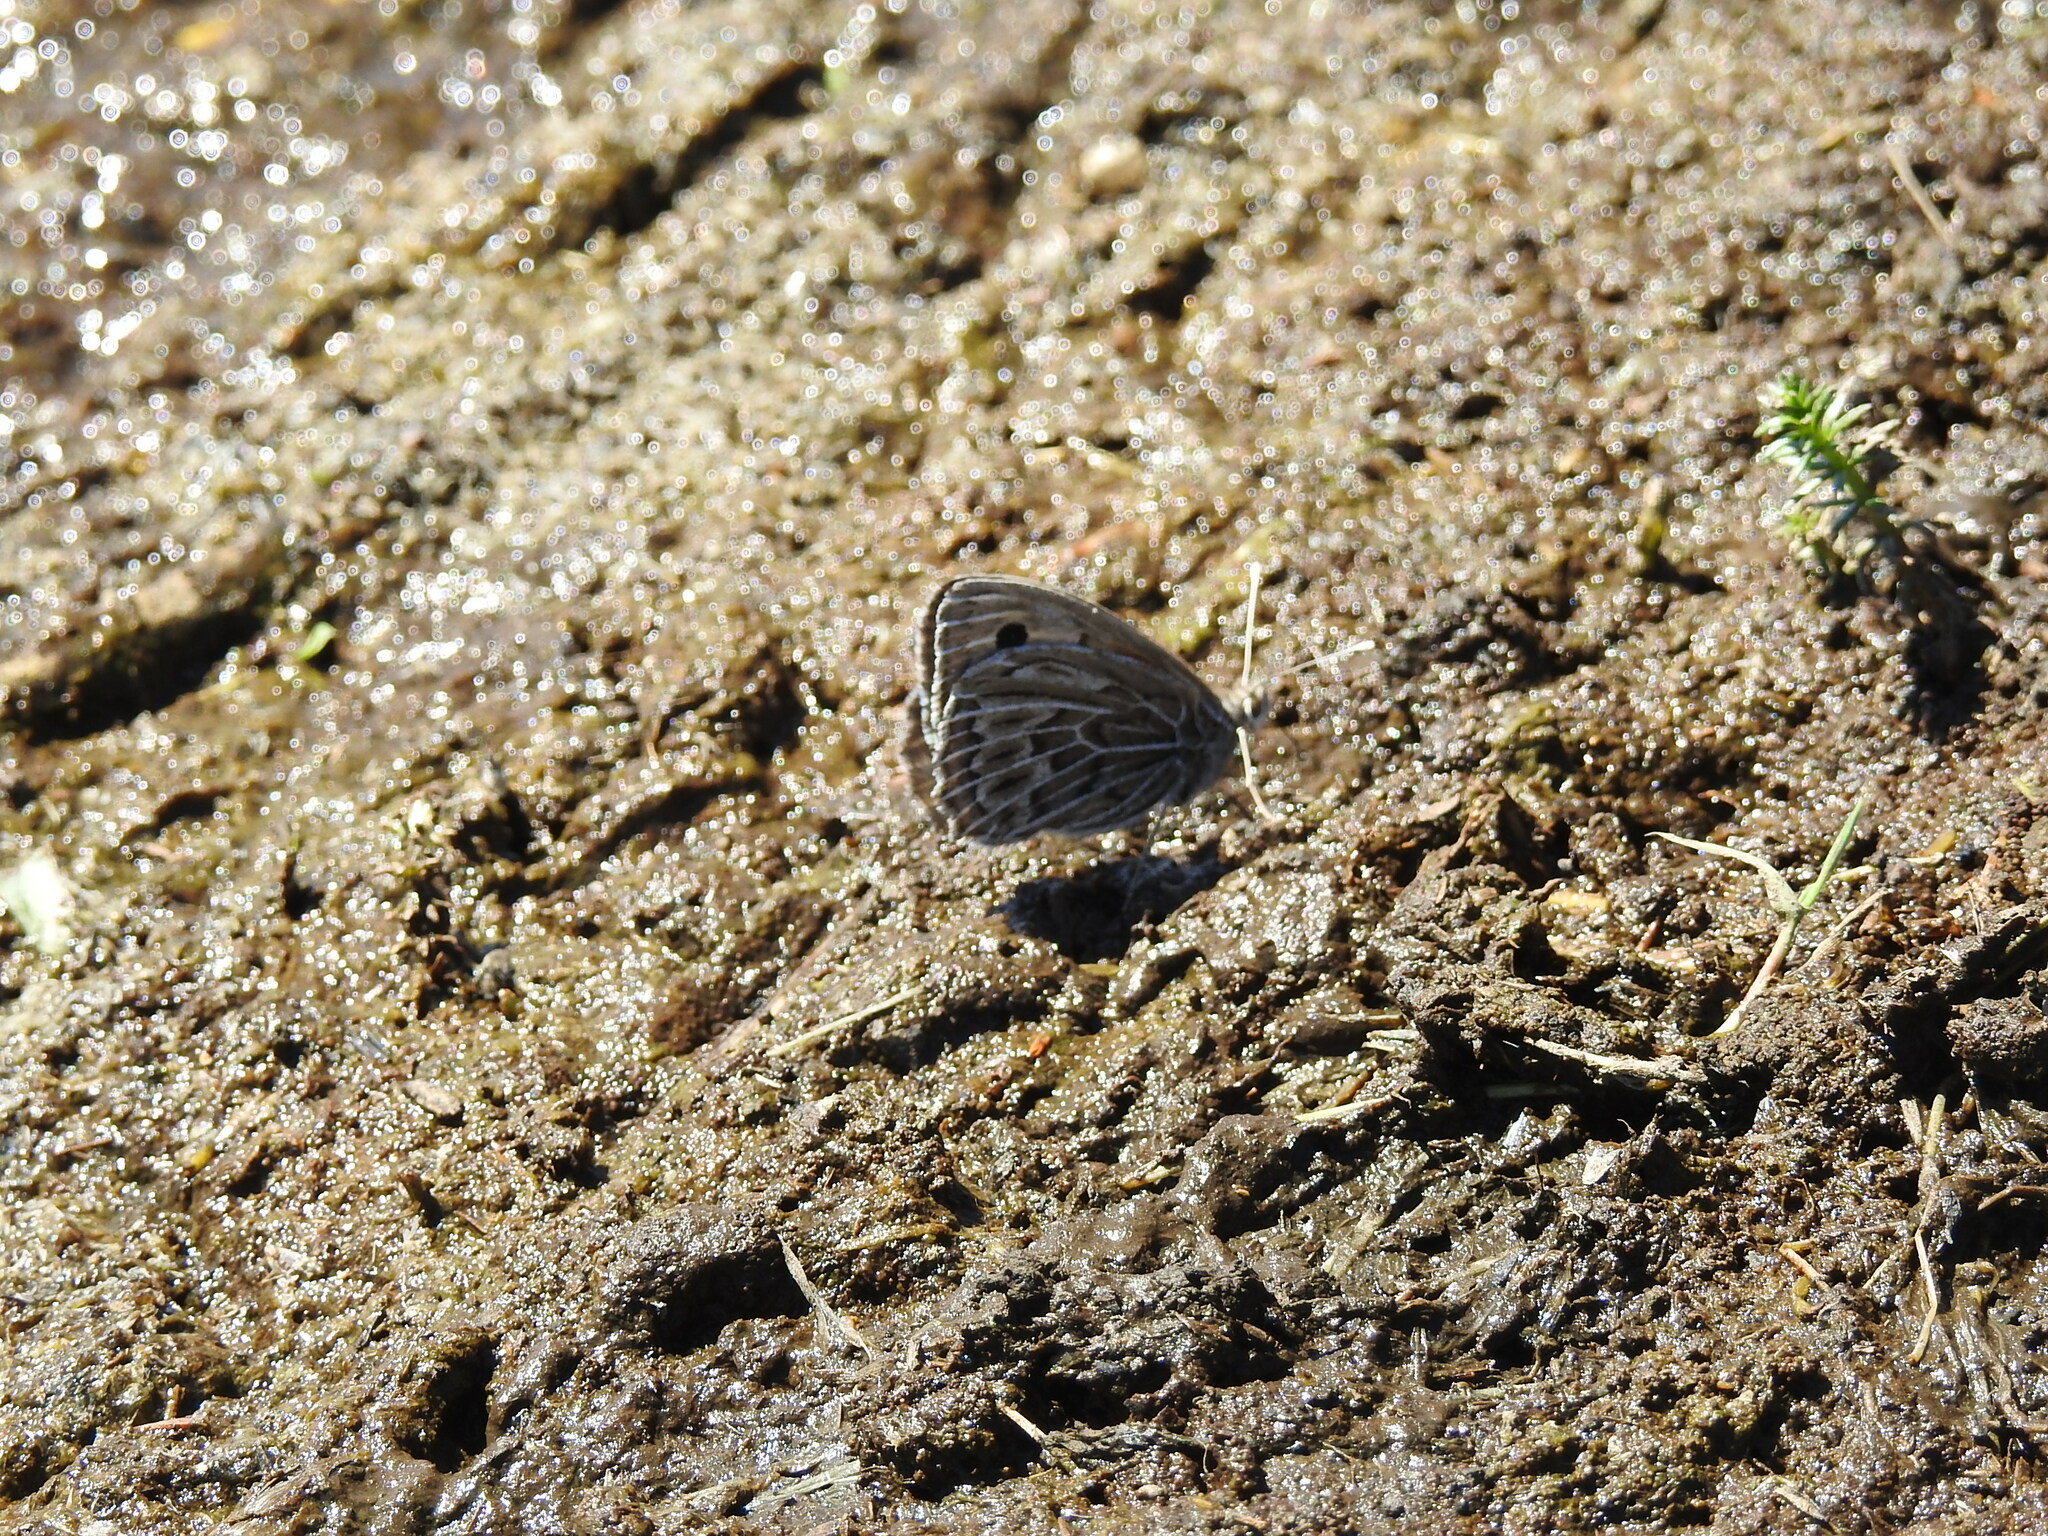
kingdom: Animalia
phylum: Arthropoda
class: Insecta
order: Lepidoptera
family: Nymphalidae
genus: Argyrophorus
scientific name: Argyrophorus argenteus
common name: Silver satyr
